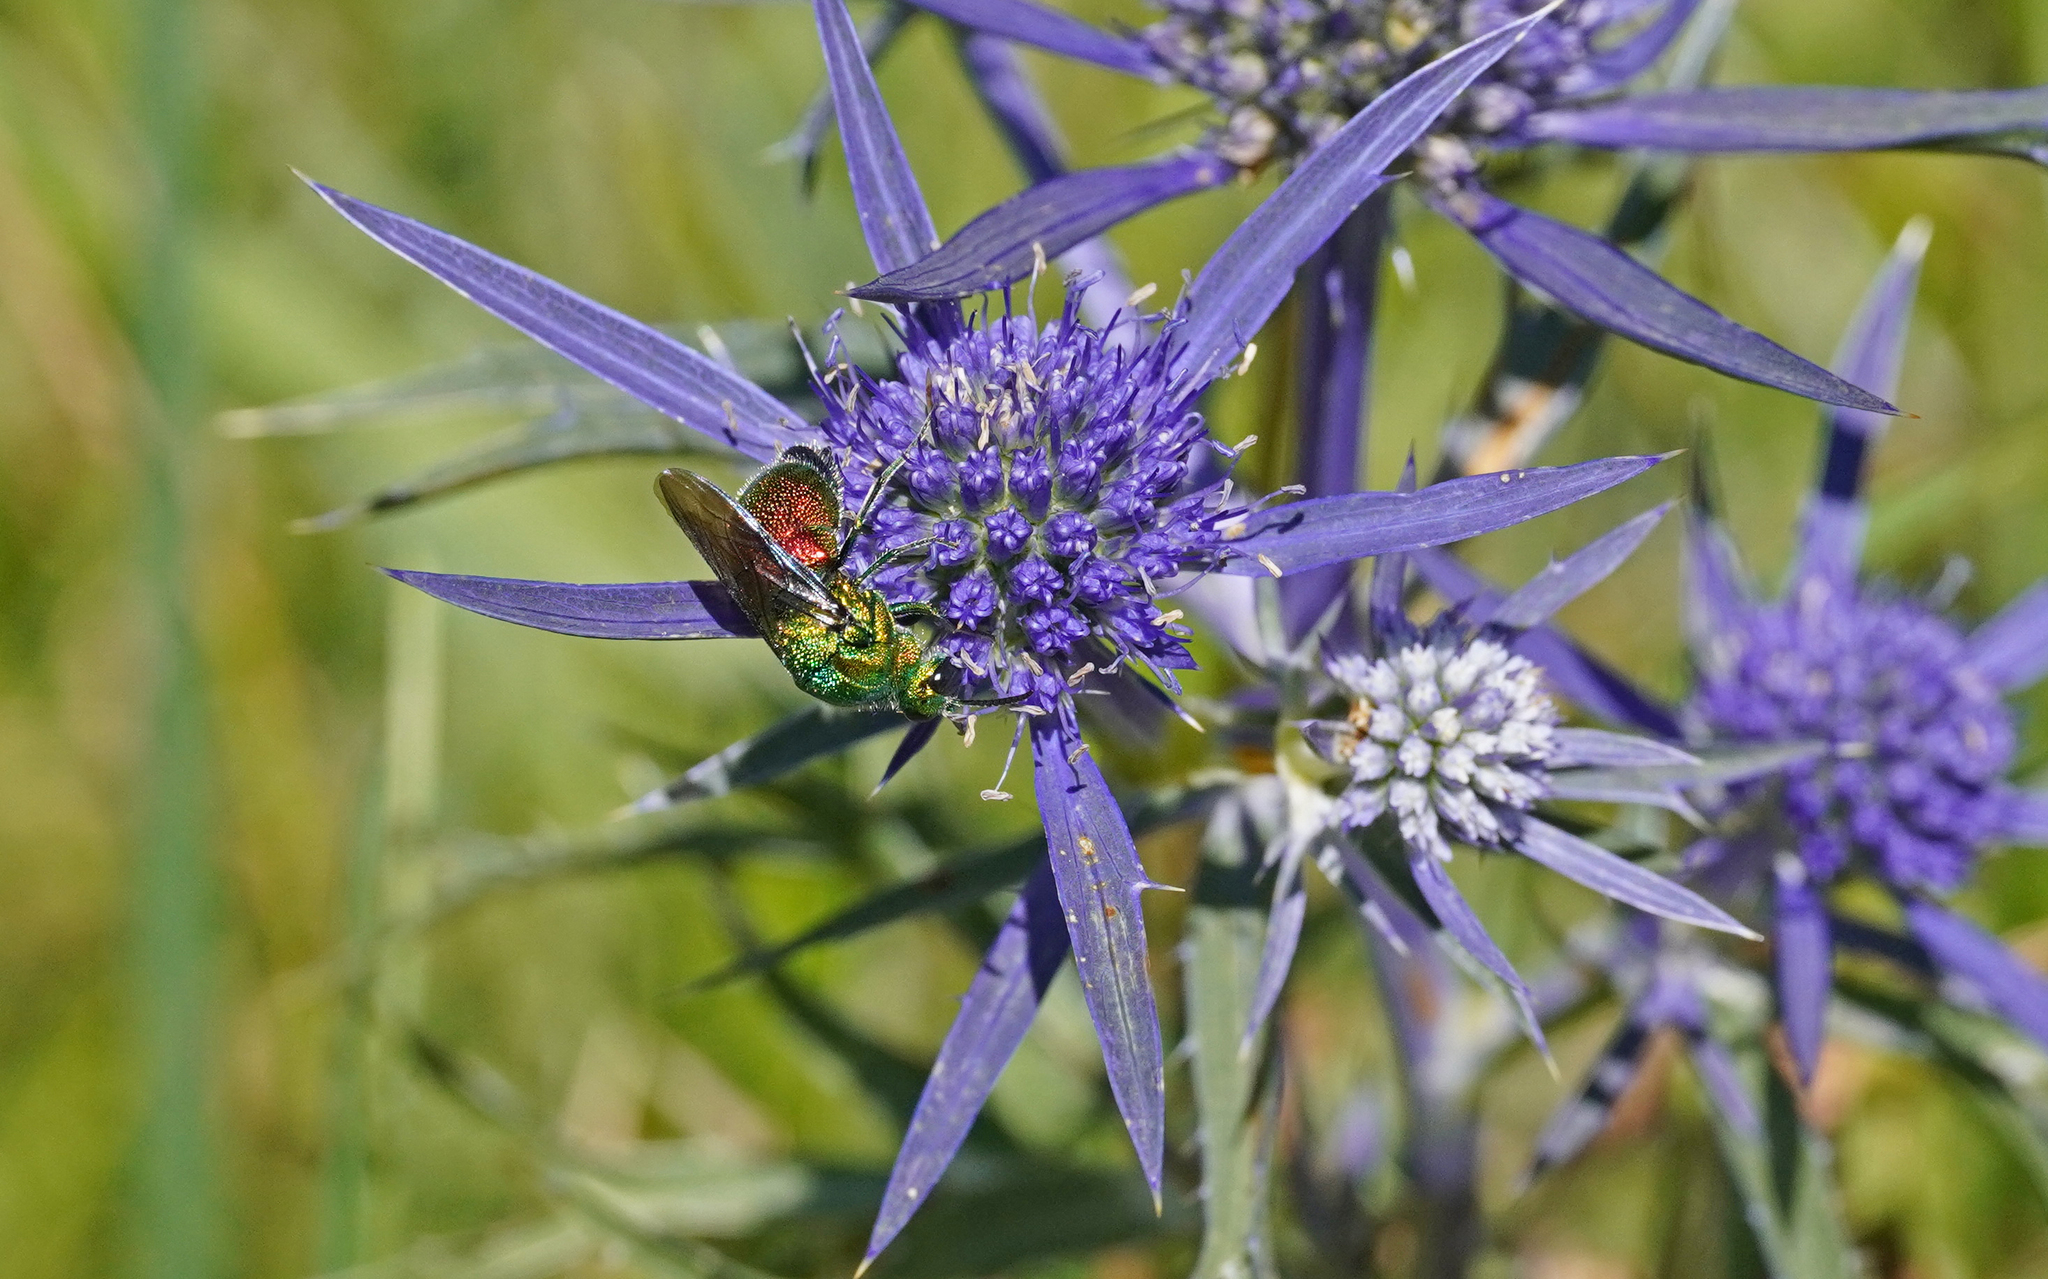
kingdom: Animalia
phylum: Arthropoda
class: Insecta
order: Hymenoptera
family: Chrysididae
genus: Stilbum
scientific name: Stilbum cyanurum
